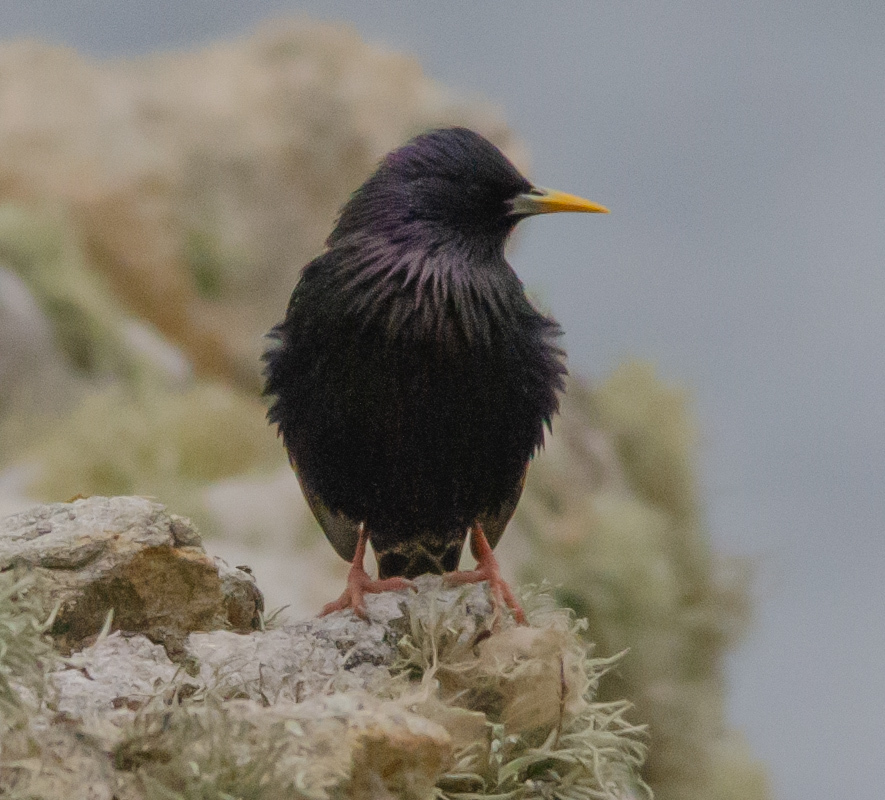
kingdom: Animalia
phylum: Chordata
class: Aves
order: Passeriformes
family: Sturnidae
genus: Sturnus
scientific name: Sturnus vulgaris
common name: Common starling
